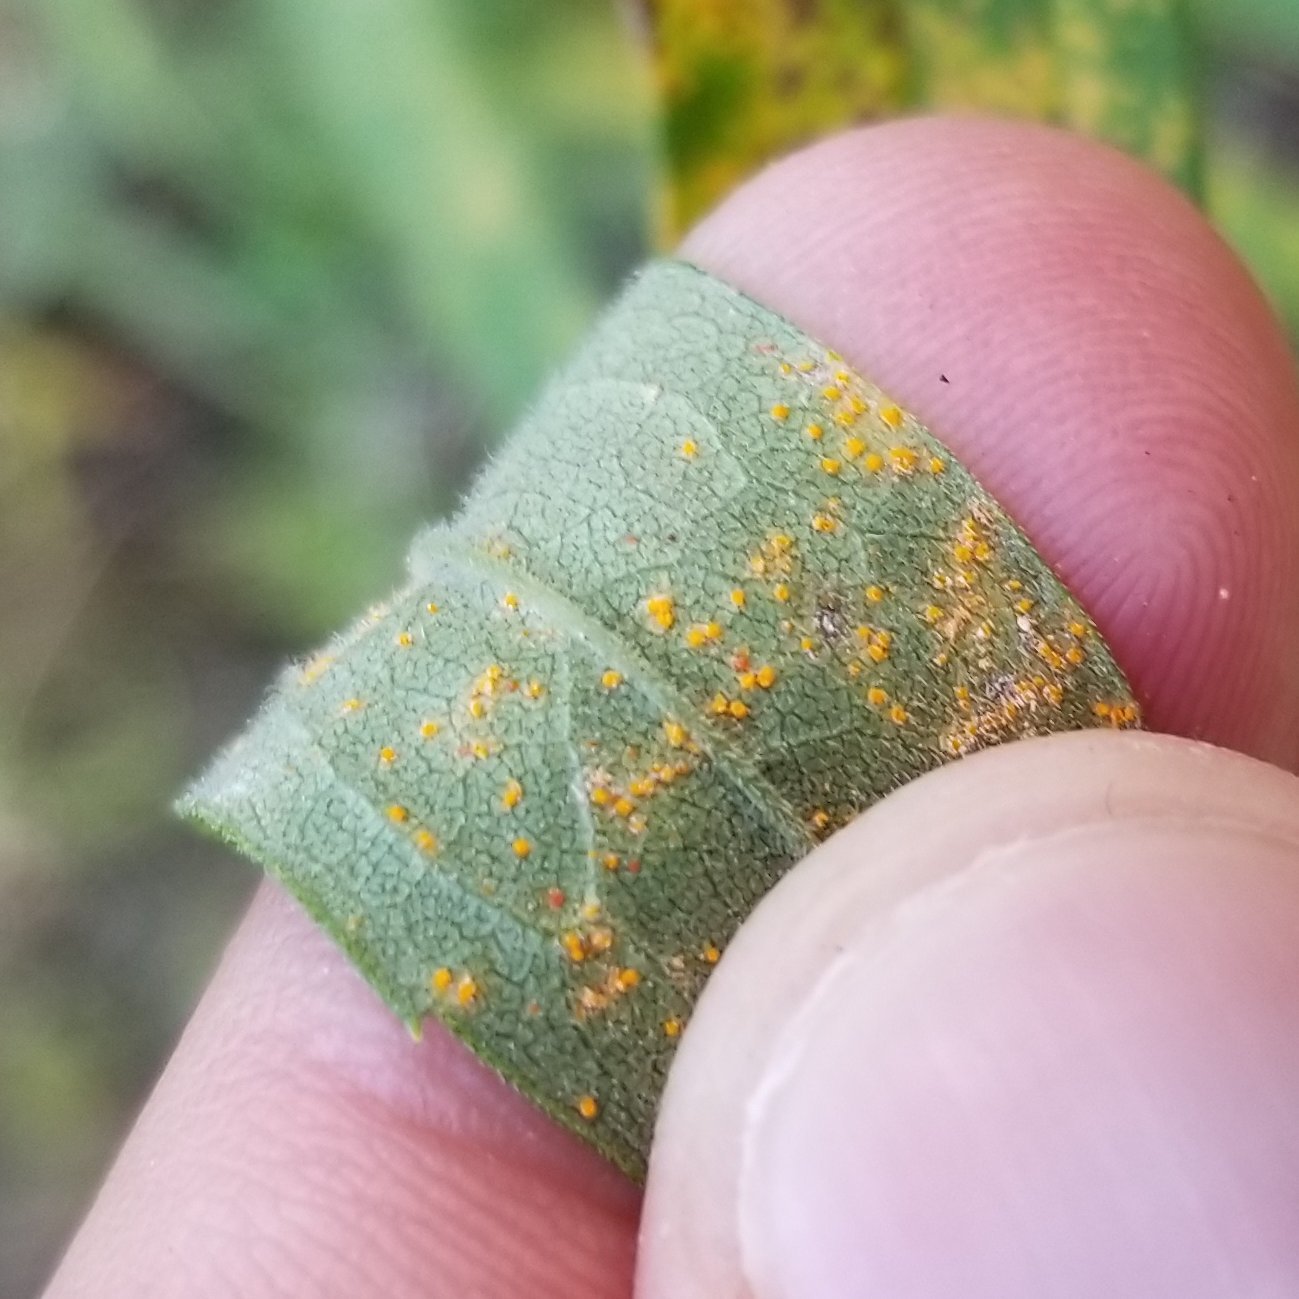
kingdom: Fungi
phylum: Basidiomycota
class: Pucciniomycetes
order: Pucciniales
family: Coleosporiaceae
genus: Coleosporium
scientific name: Coleosporium asterum
